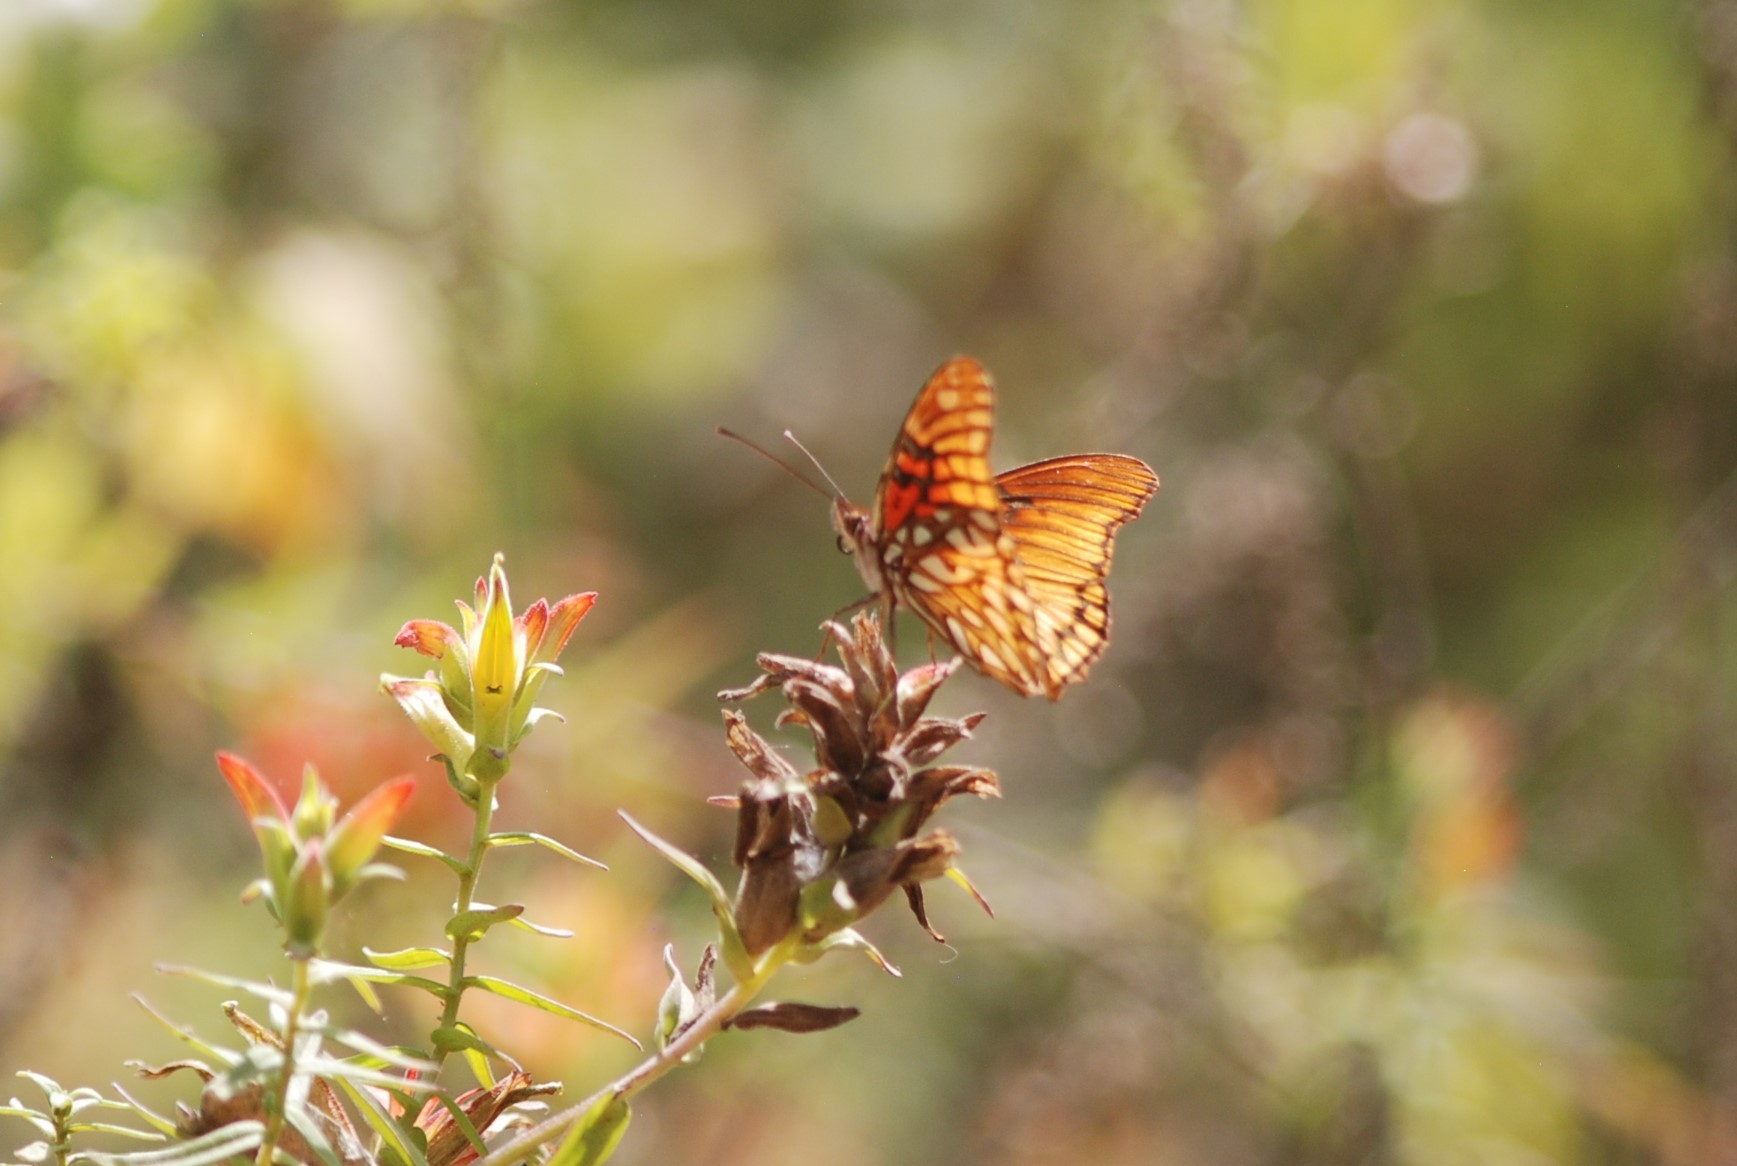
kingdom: Animalia
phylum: Arthropoda
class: Insecta
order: Lepidoptera
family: Nymphalidae
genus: Dione
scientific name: Dione moneta
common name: Mexican silverspot
